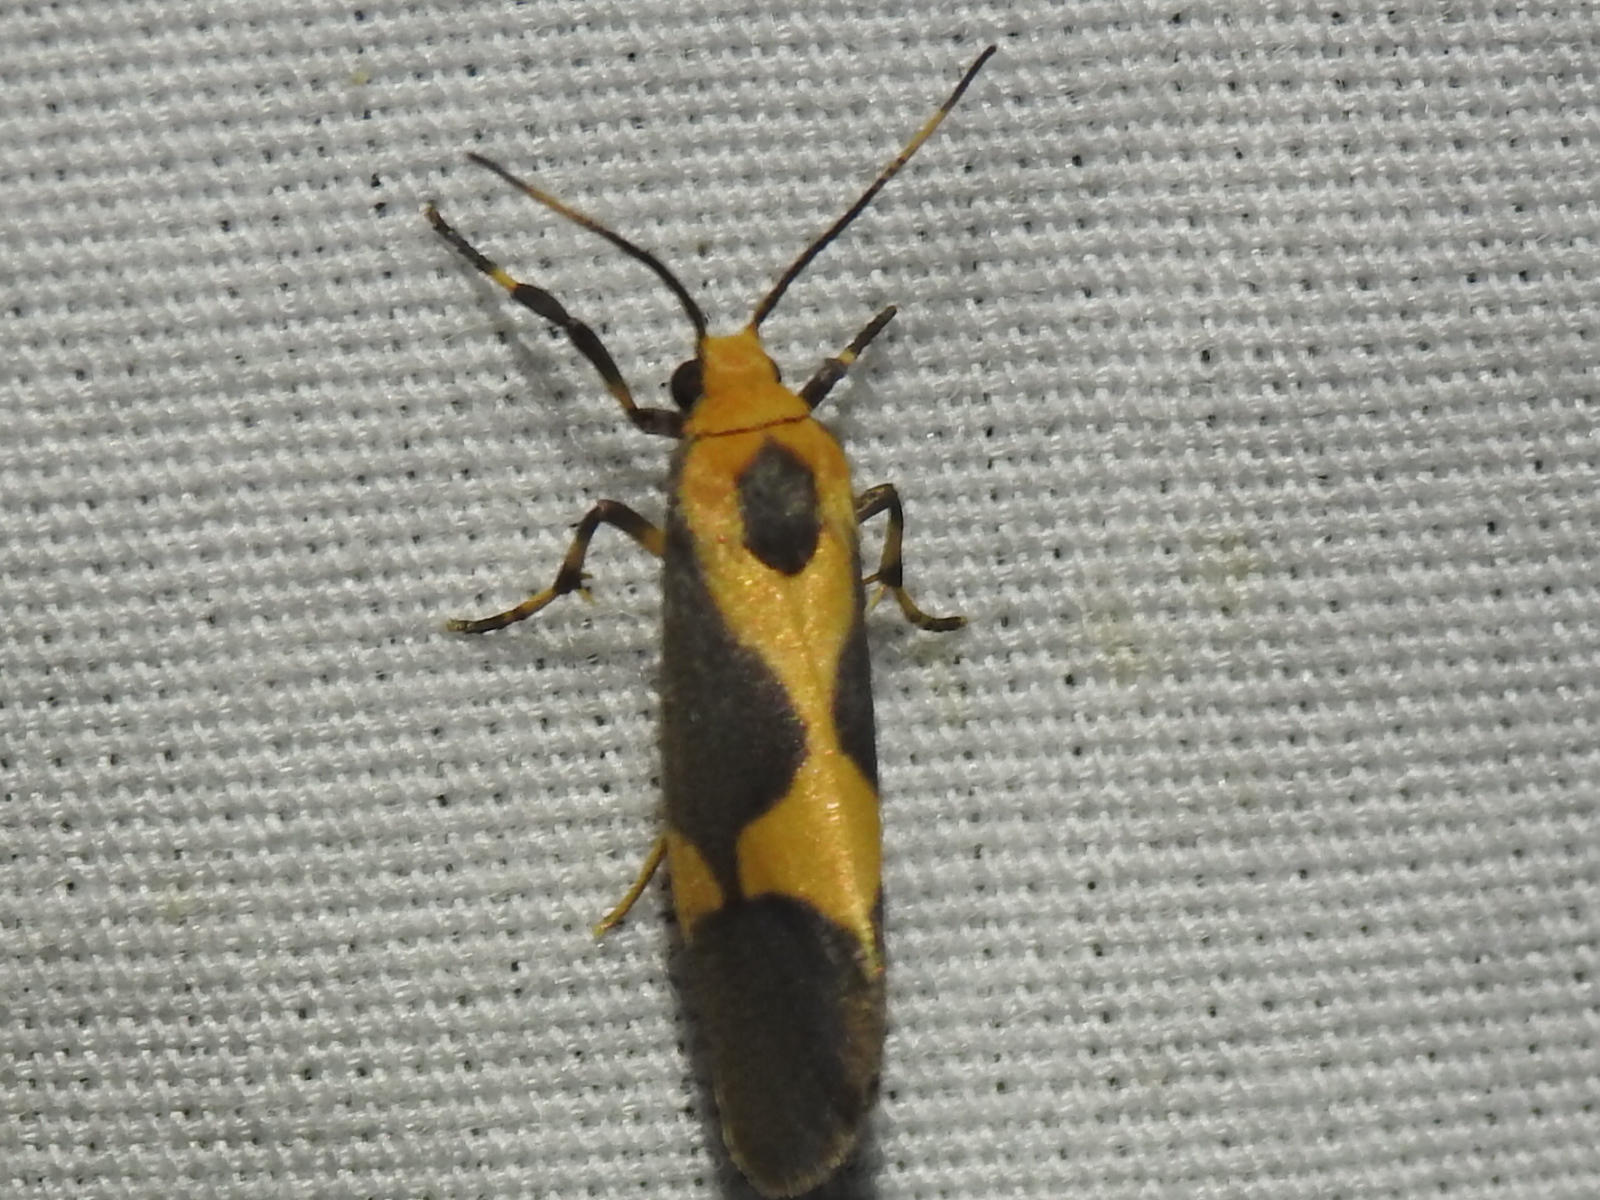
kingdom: Animalia
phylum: Arthropoda
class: Insecta
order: Lepidoptera
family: Erebidae
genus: Cisthene
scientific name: Cisthene unifascia
